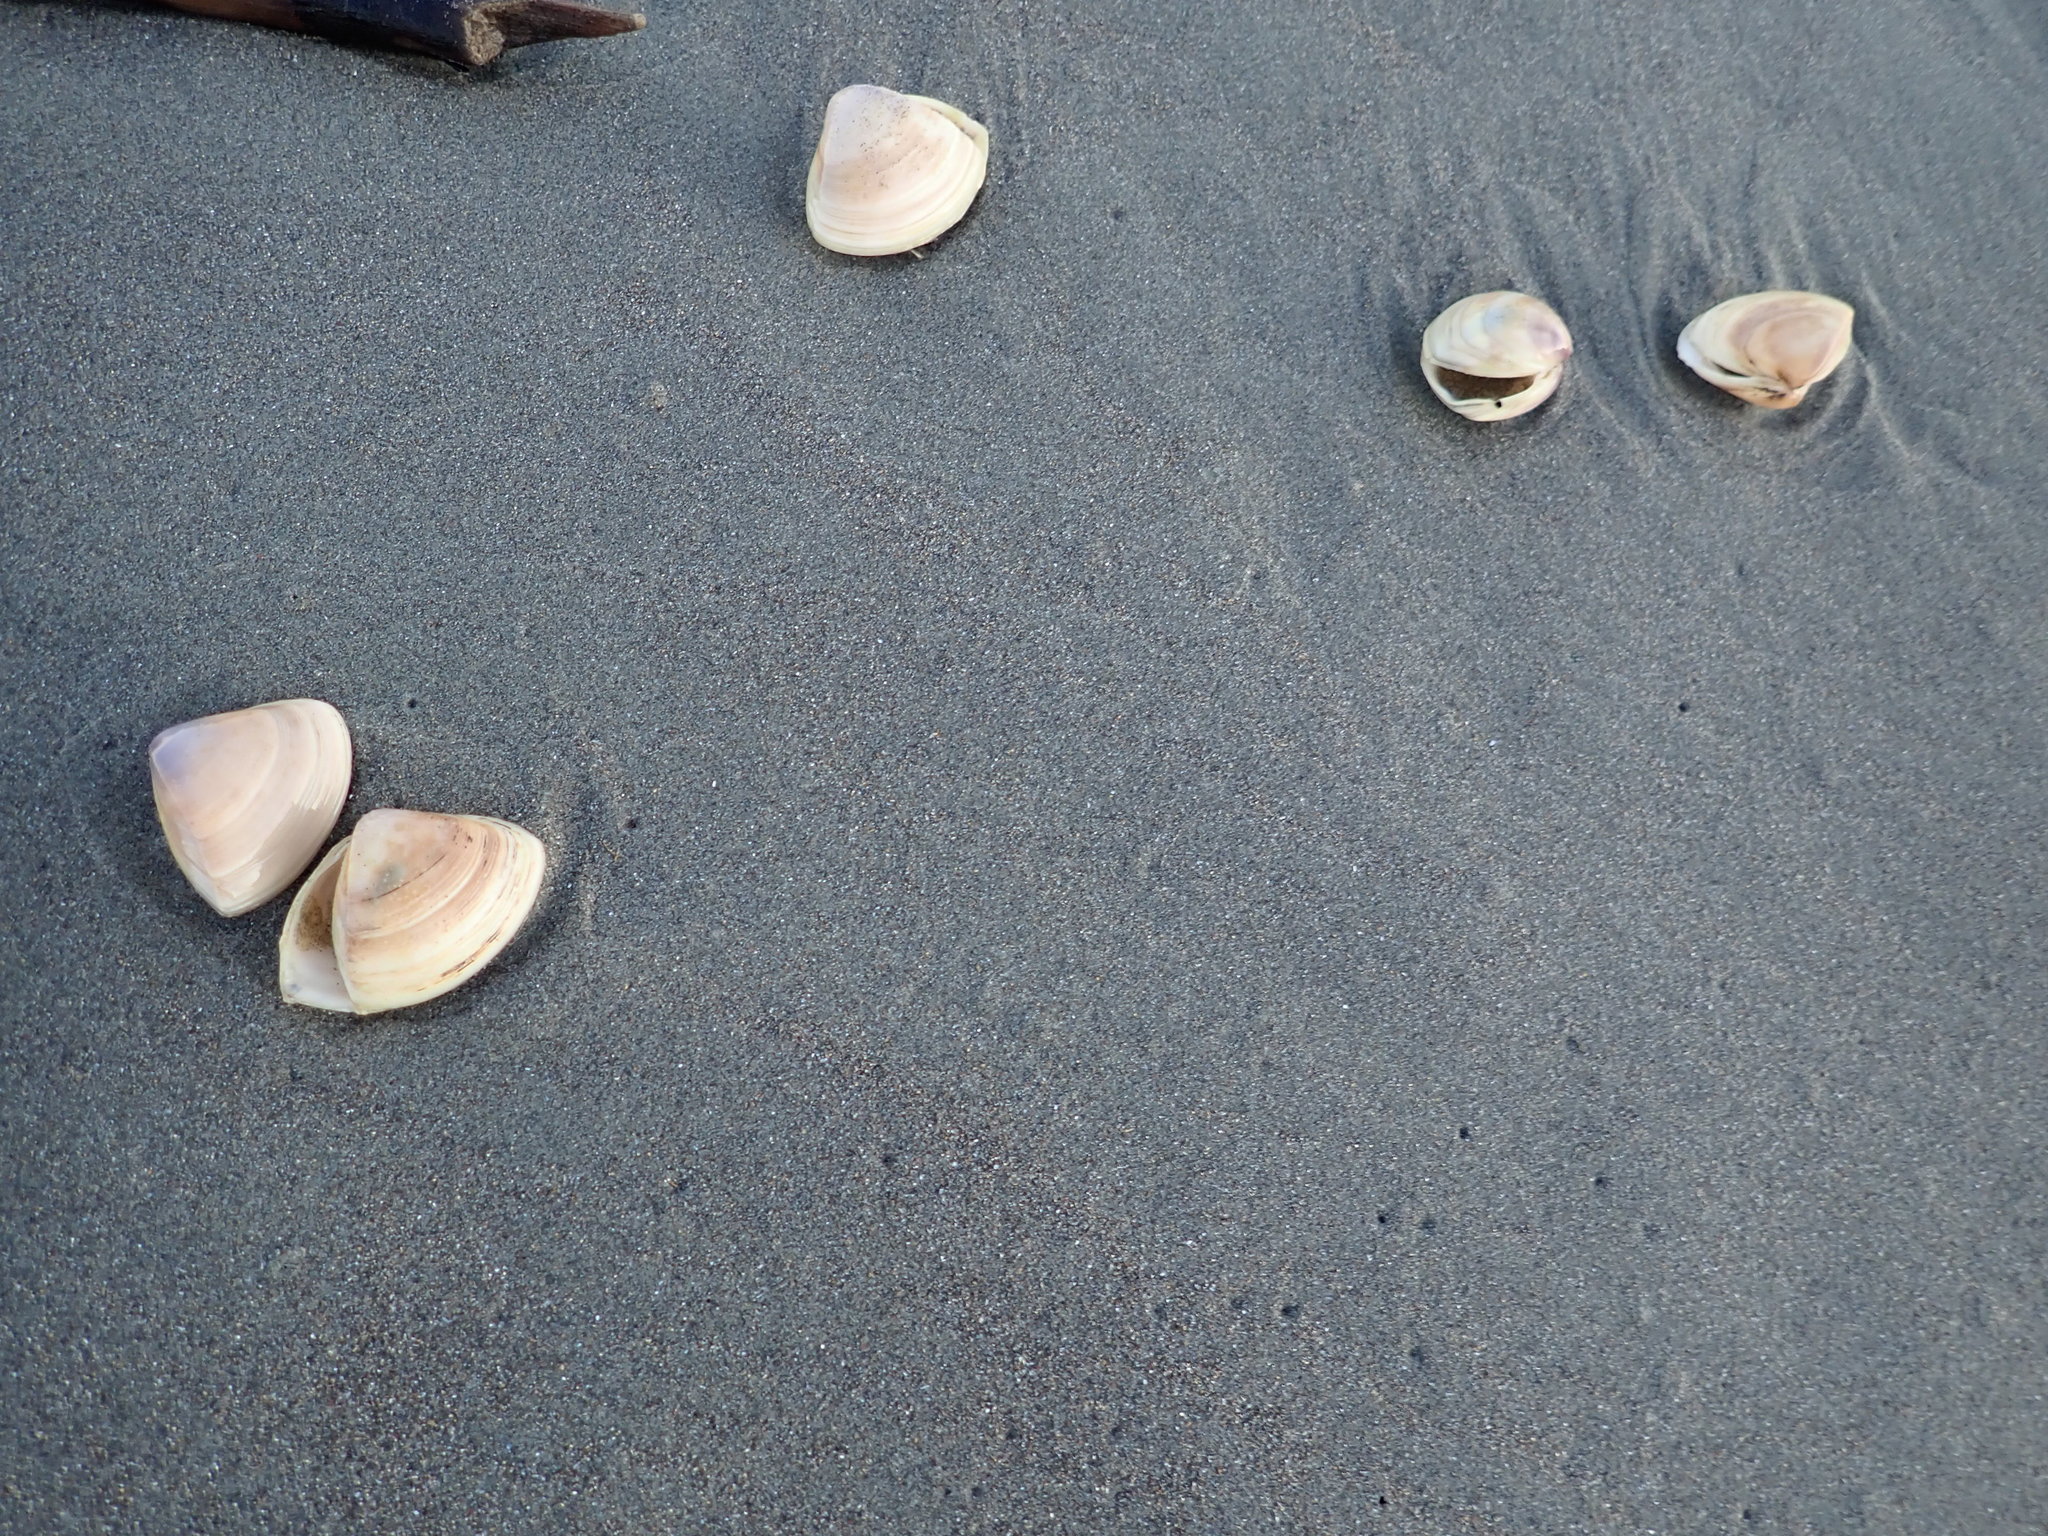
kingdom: Animalia
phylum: Mollusca
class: Bivalvia
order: Venerida
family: Mactridae
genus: Crassula
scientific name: Crassula aequilatera
